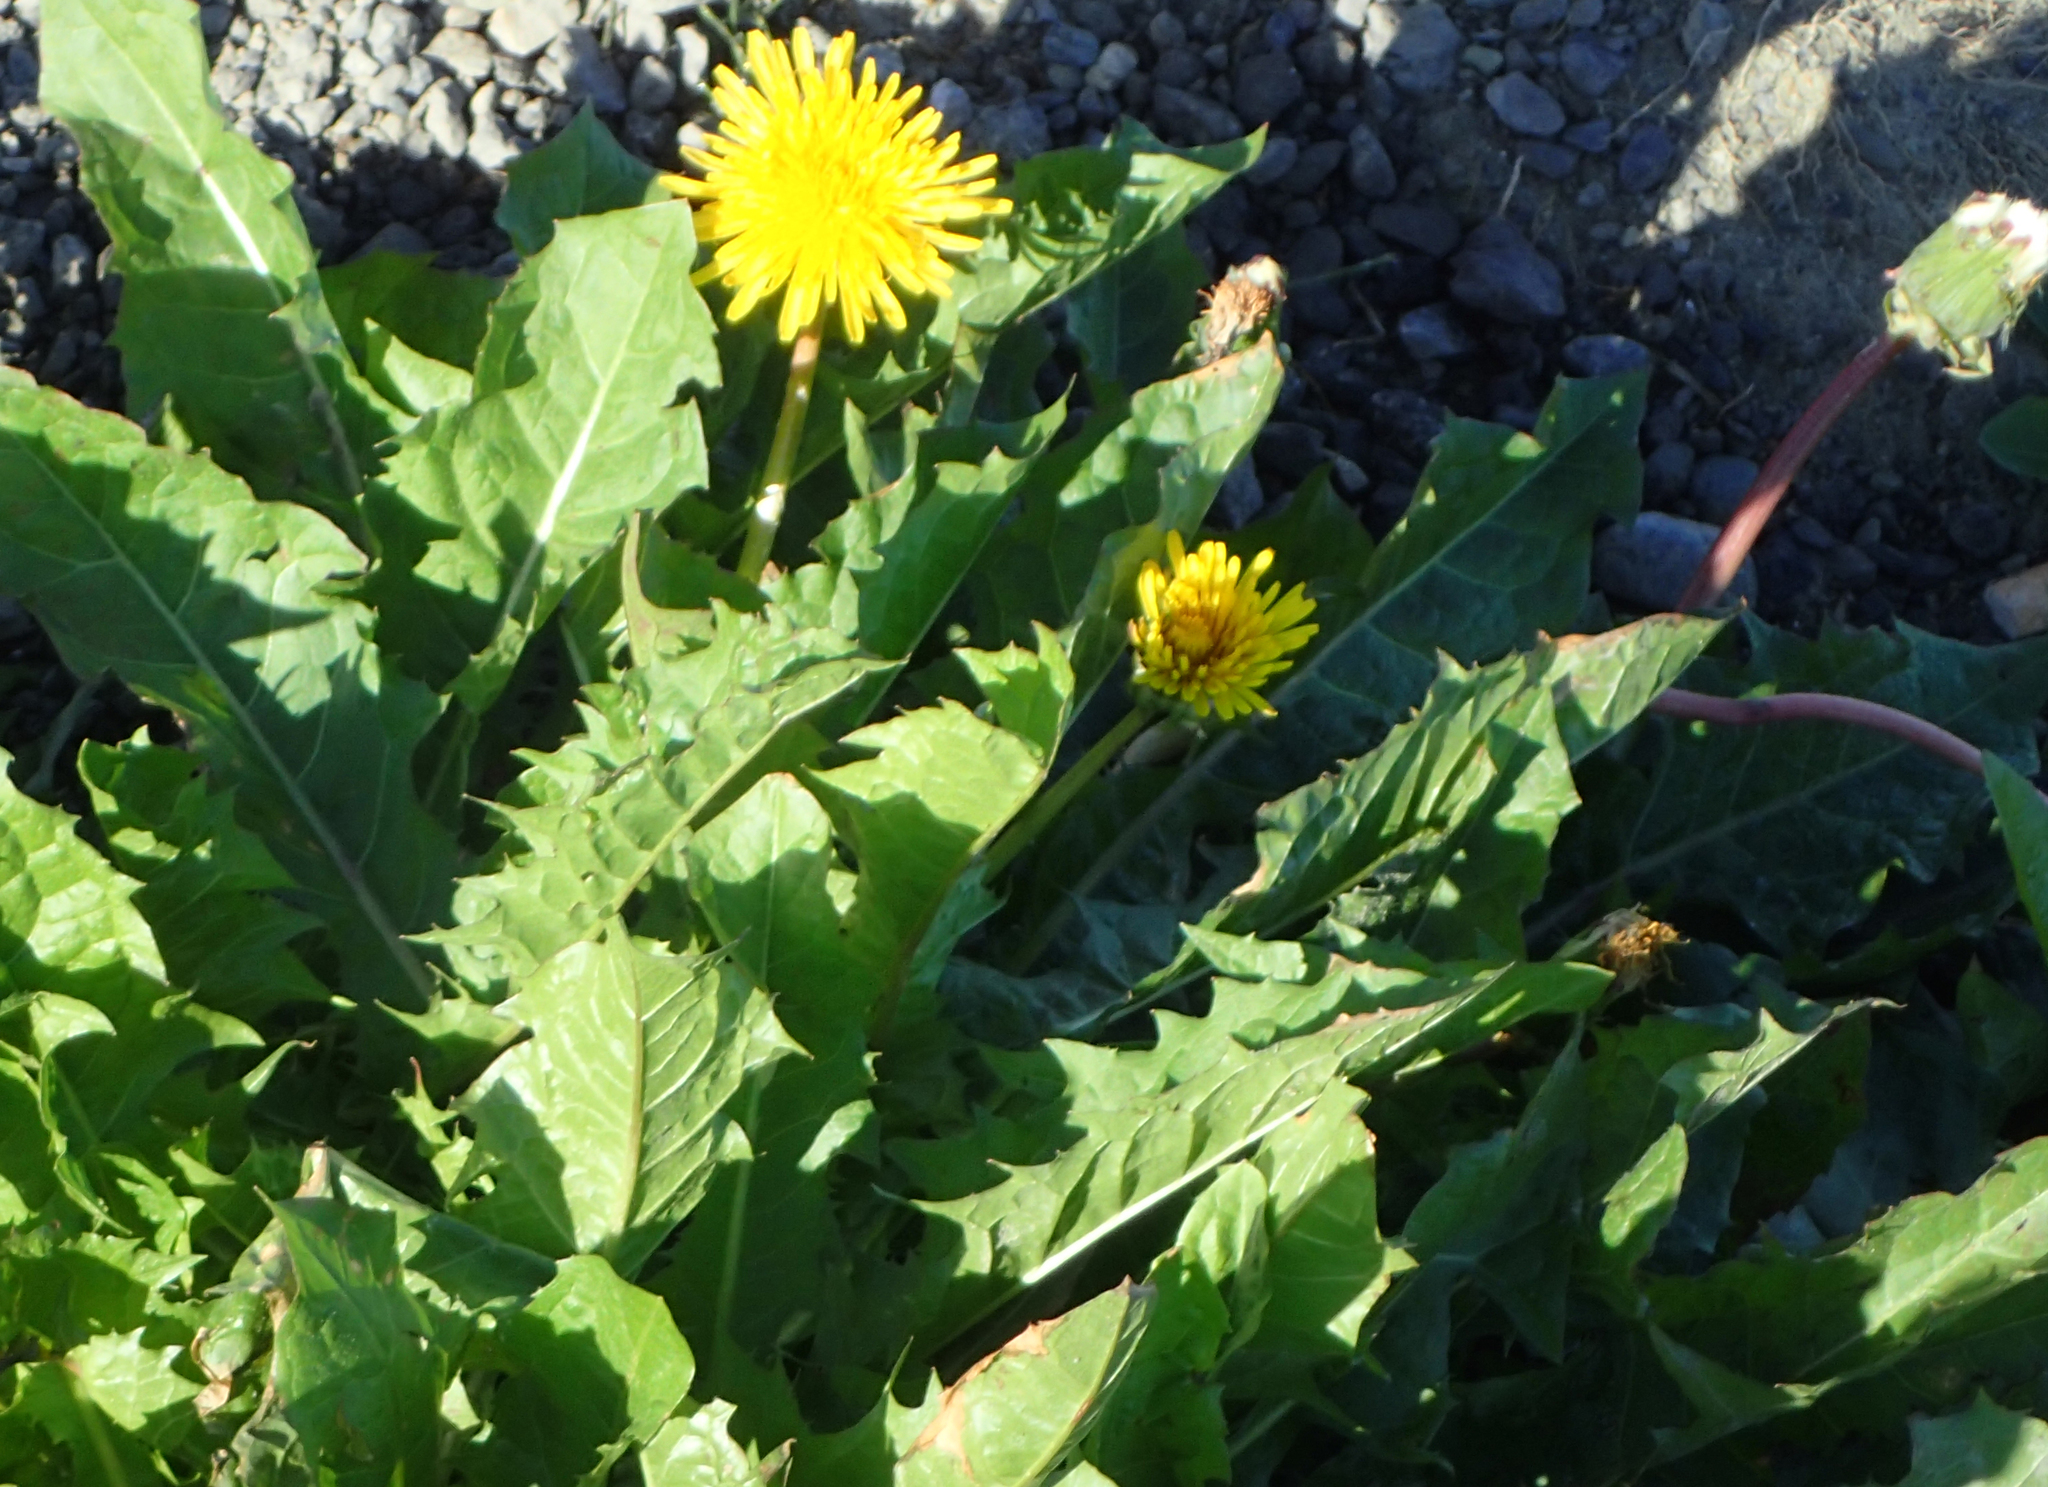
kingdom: Plantae
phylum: Tracheophyta
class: Magnoliopsida
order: Asterales
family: Asteraceae
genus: Taraxacum
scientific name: Taraxacum officinale
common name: Common dandelion
